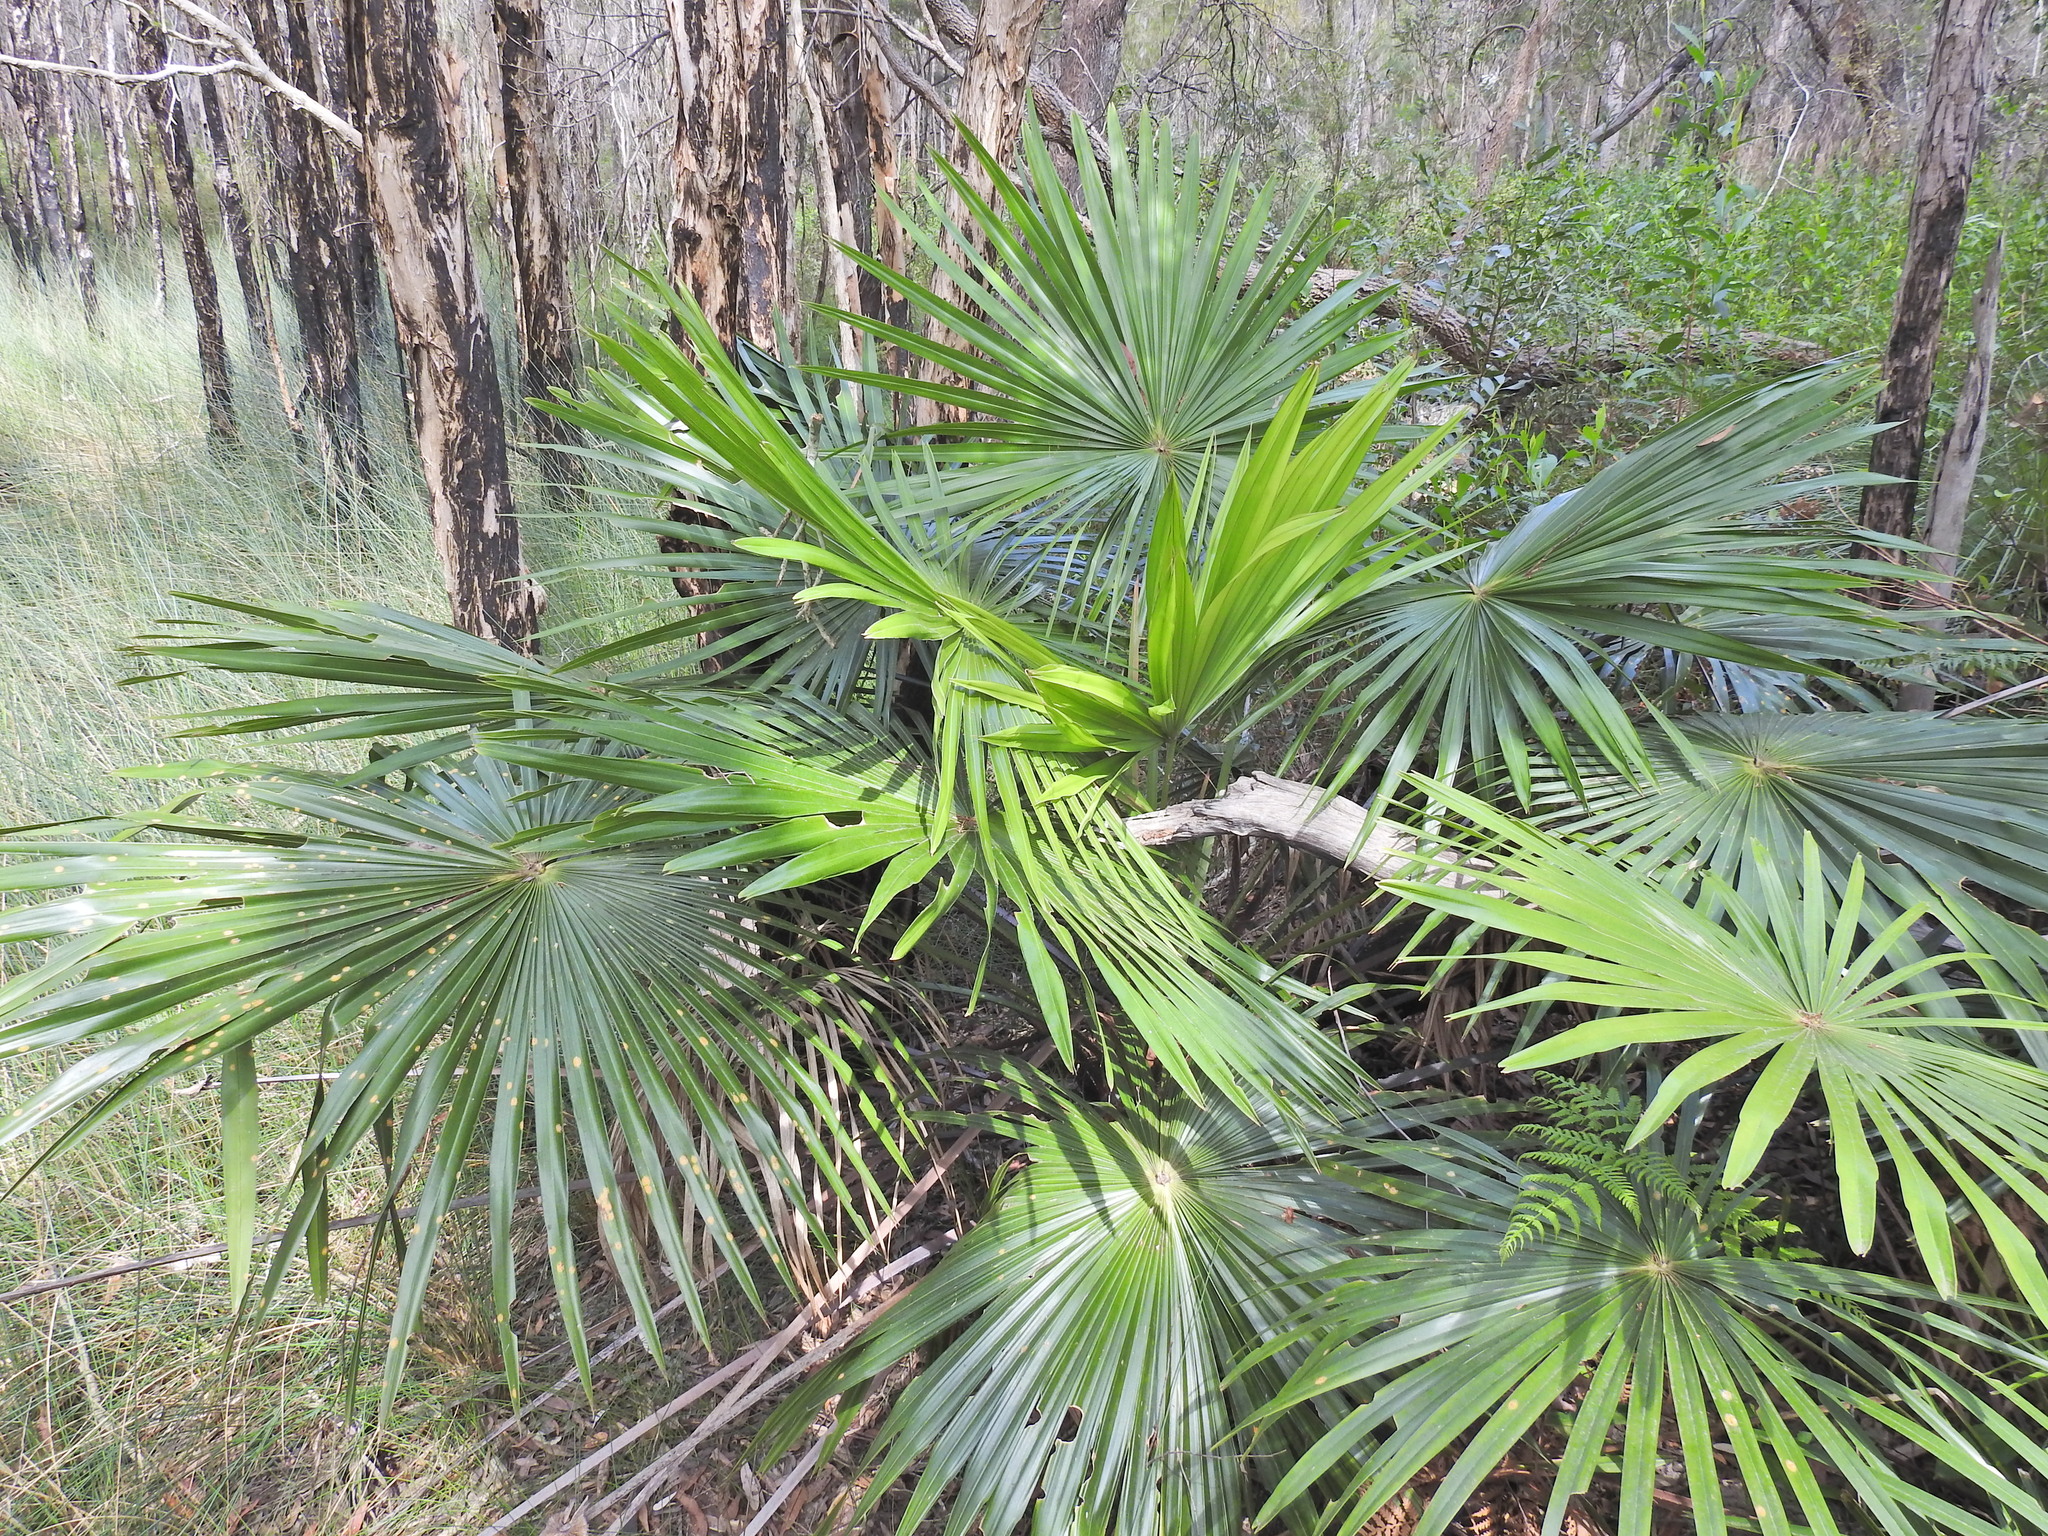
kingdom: Plantae
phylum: Tracheophyta
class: Liliopsida
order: Arecales
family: Arecaceae
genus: Livistona
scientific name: Livistona australis
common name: Cabbage fan palm
